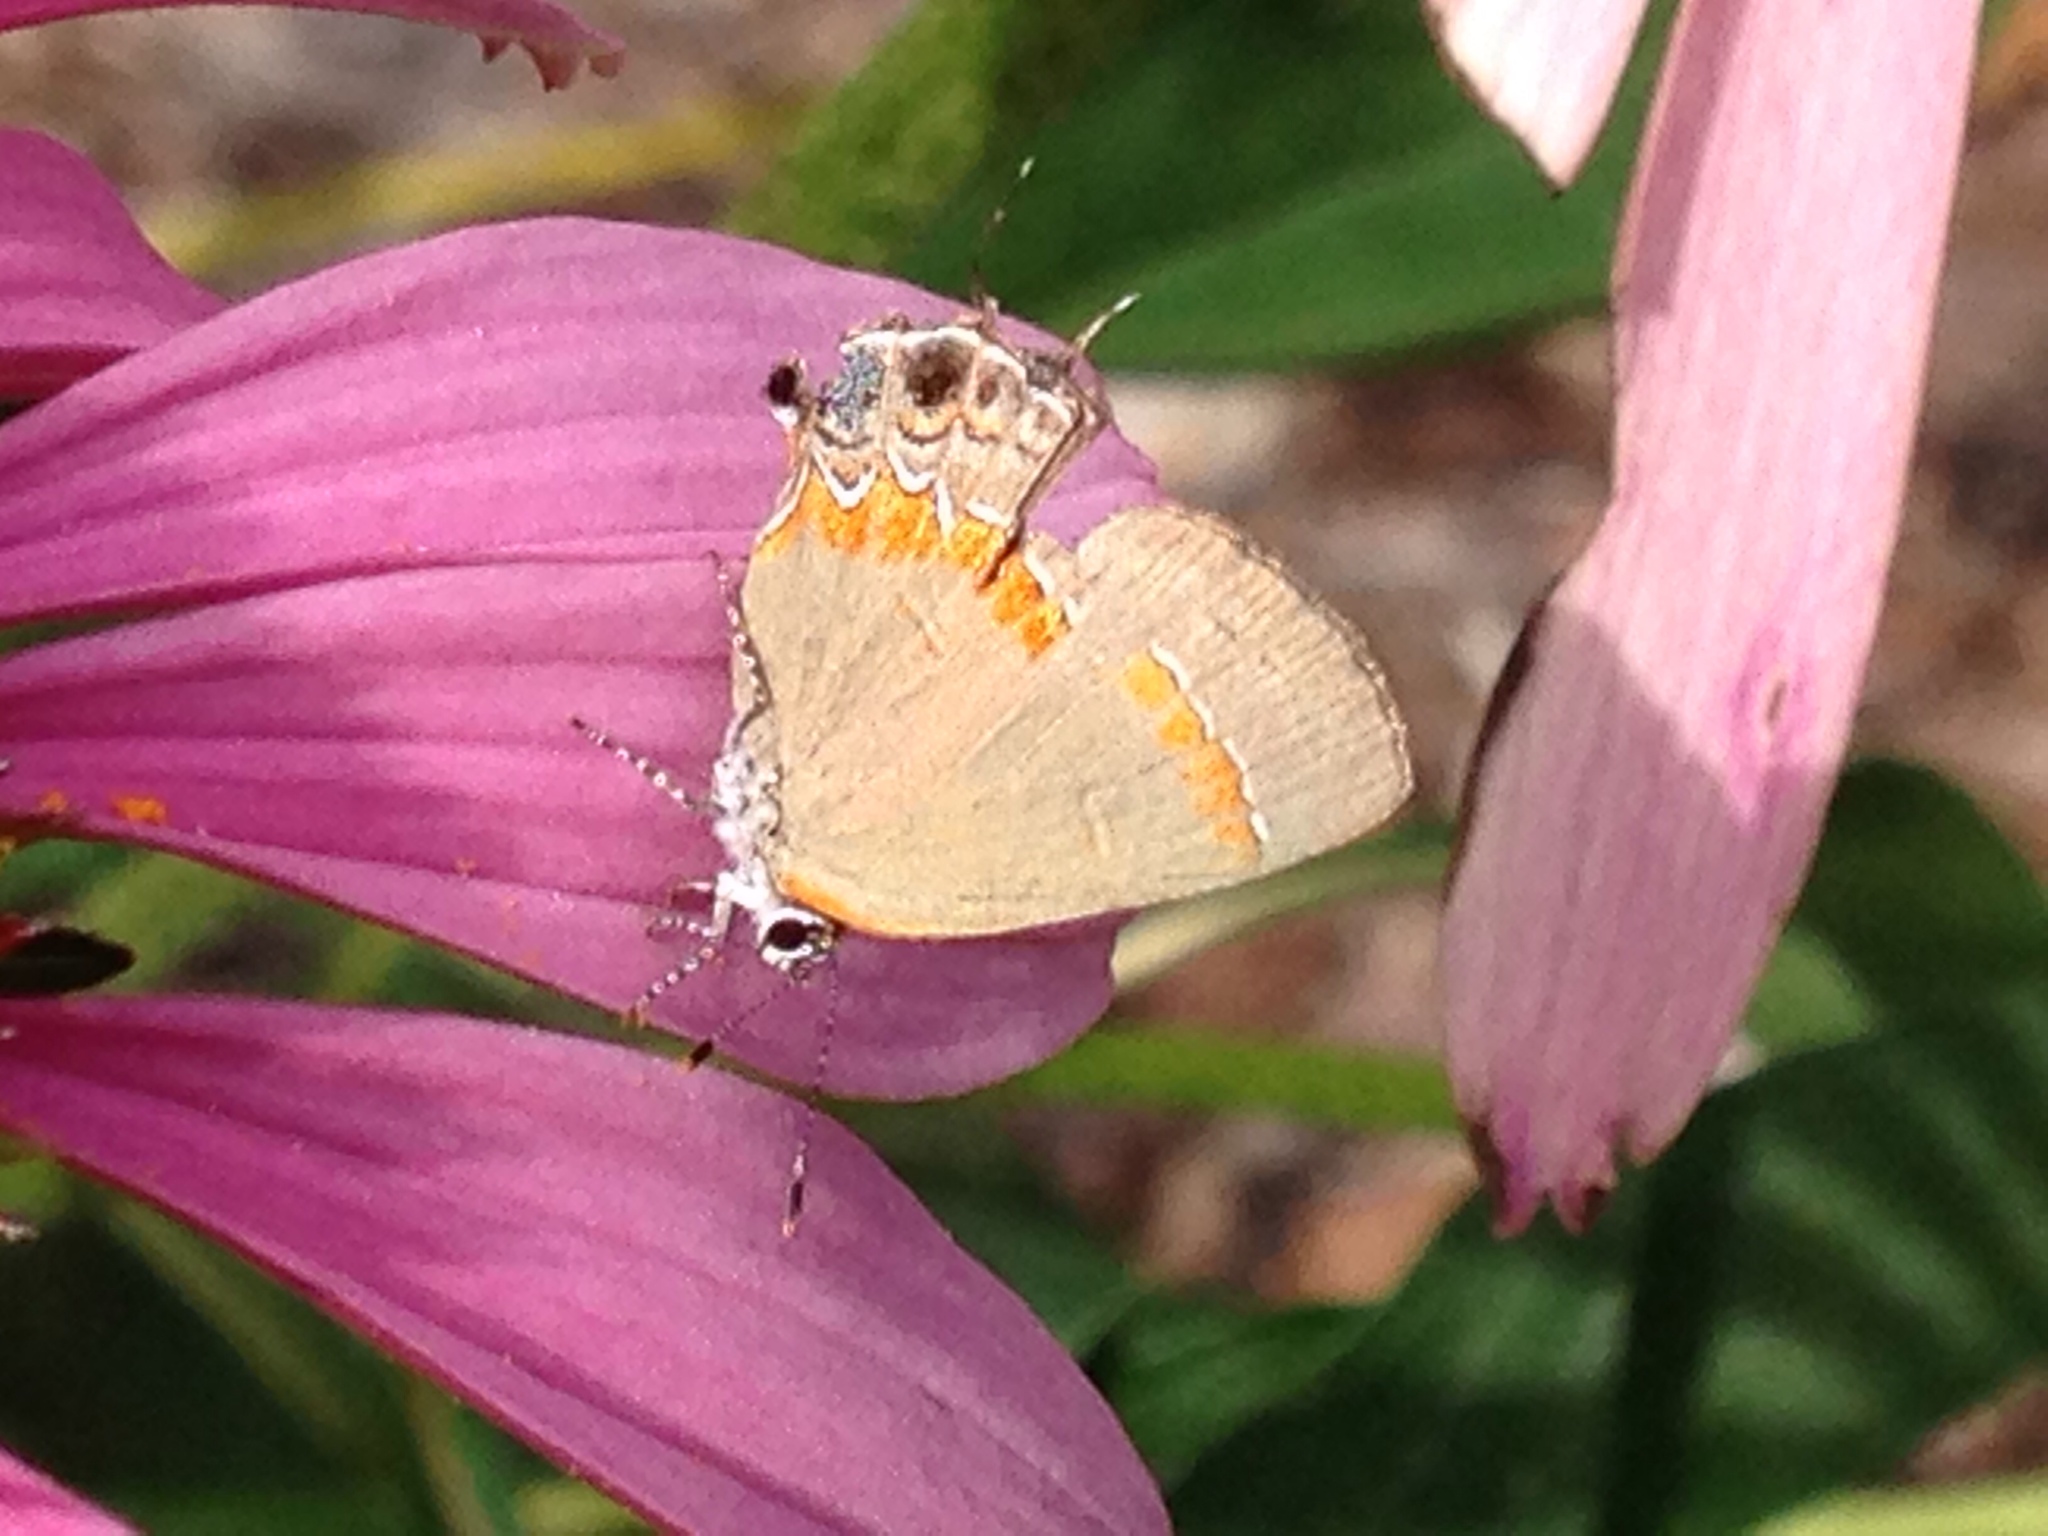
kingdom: Animalia
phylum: Arthropoda
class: Insecta
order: Lepidoptera
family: Lycaenidae
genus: Calycopis
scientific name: Calycopis cecrops
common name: Red-banded hairstreak
